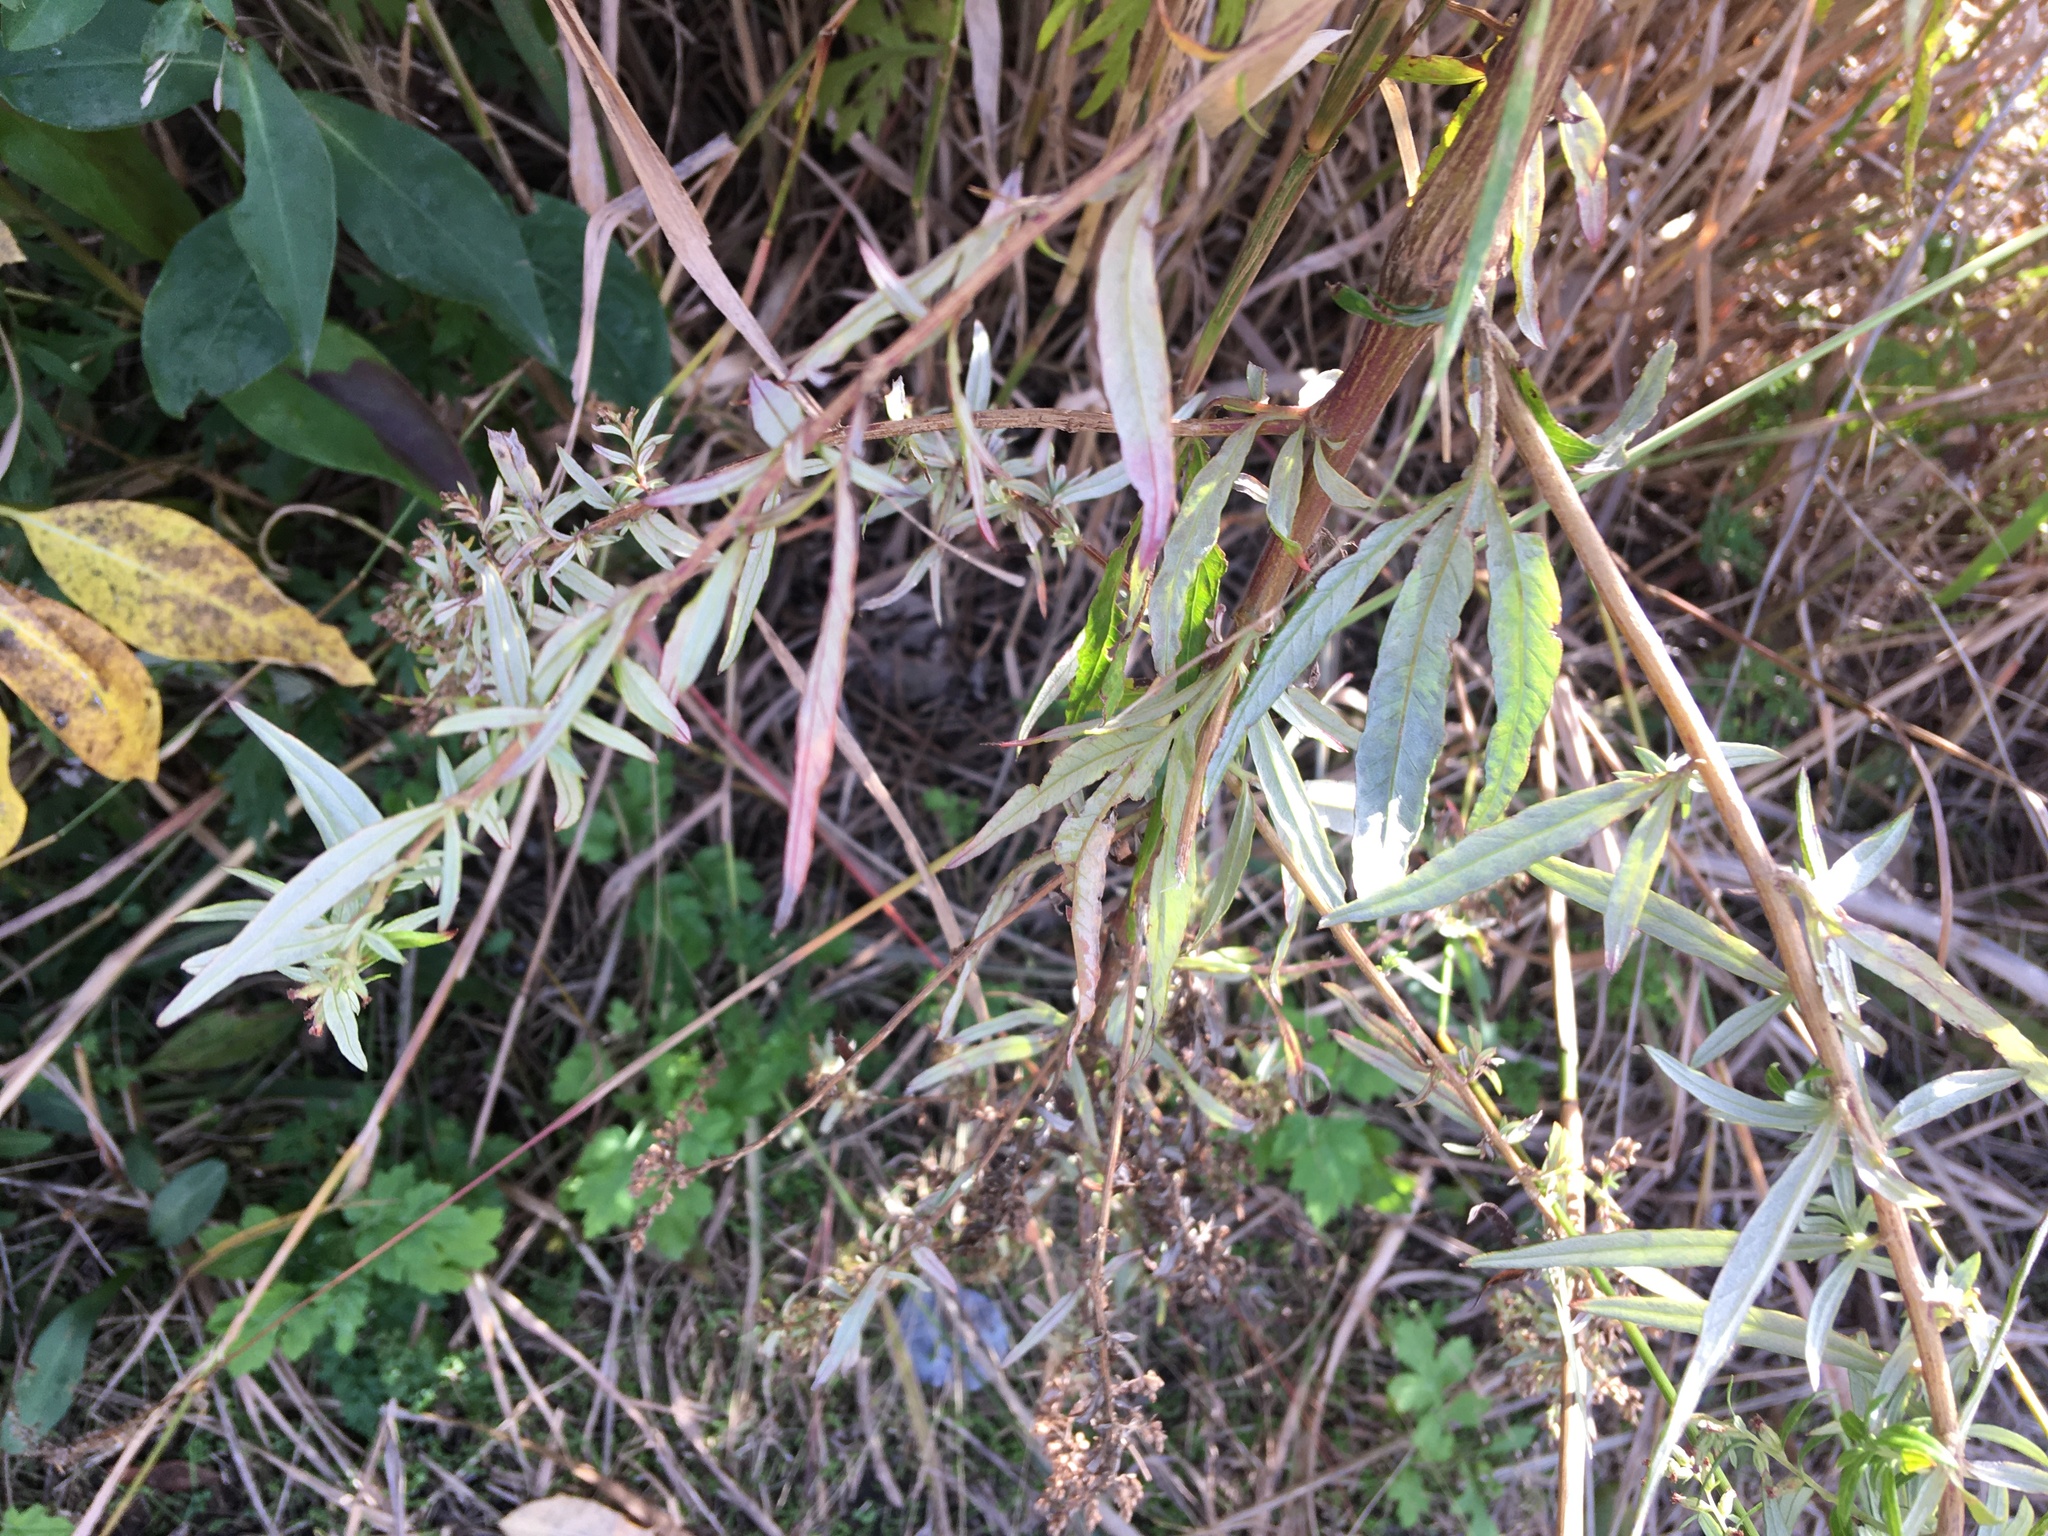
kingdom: Plantae
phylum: Tracheophyta
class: Magnoliopsida
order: Asterales
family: Asteraceae
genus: Artemisia
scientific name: Artemisia vulgaris
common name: Mugwort
